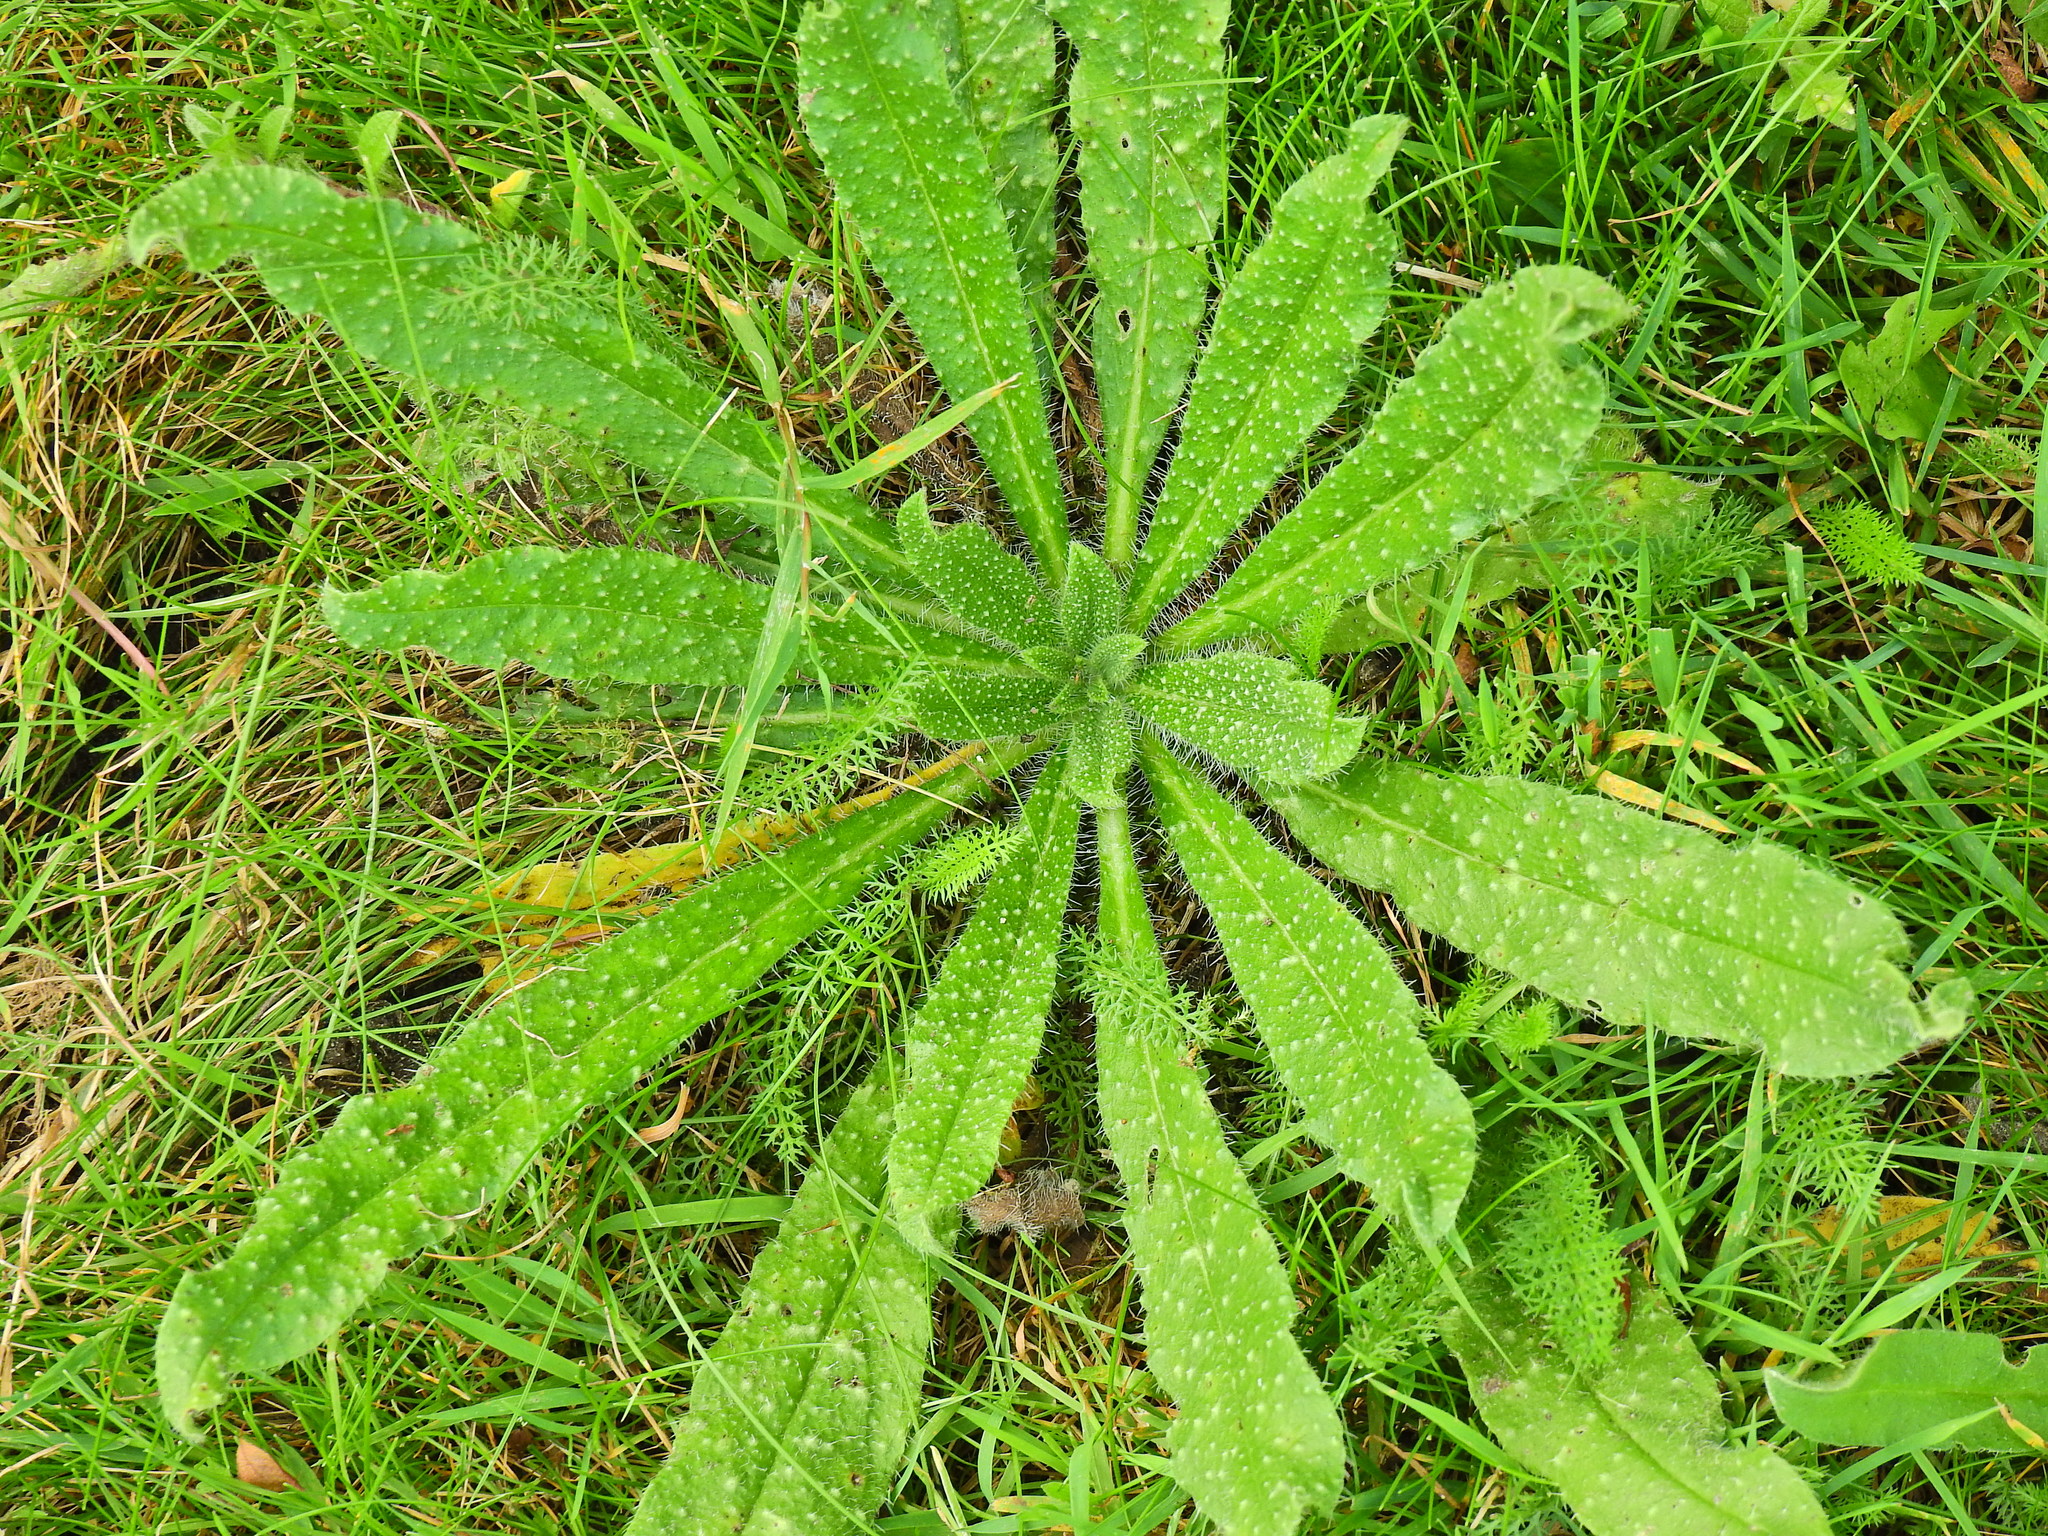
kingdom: Plantae
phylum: Tracheophyta
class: Magnoliopsida
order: Asterales
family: Asteraceae
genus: Helminthotheca
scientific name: Helminthotheca echioides
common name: Ox-tongue
